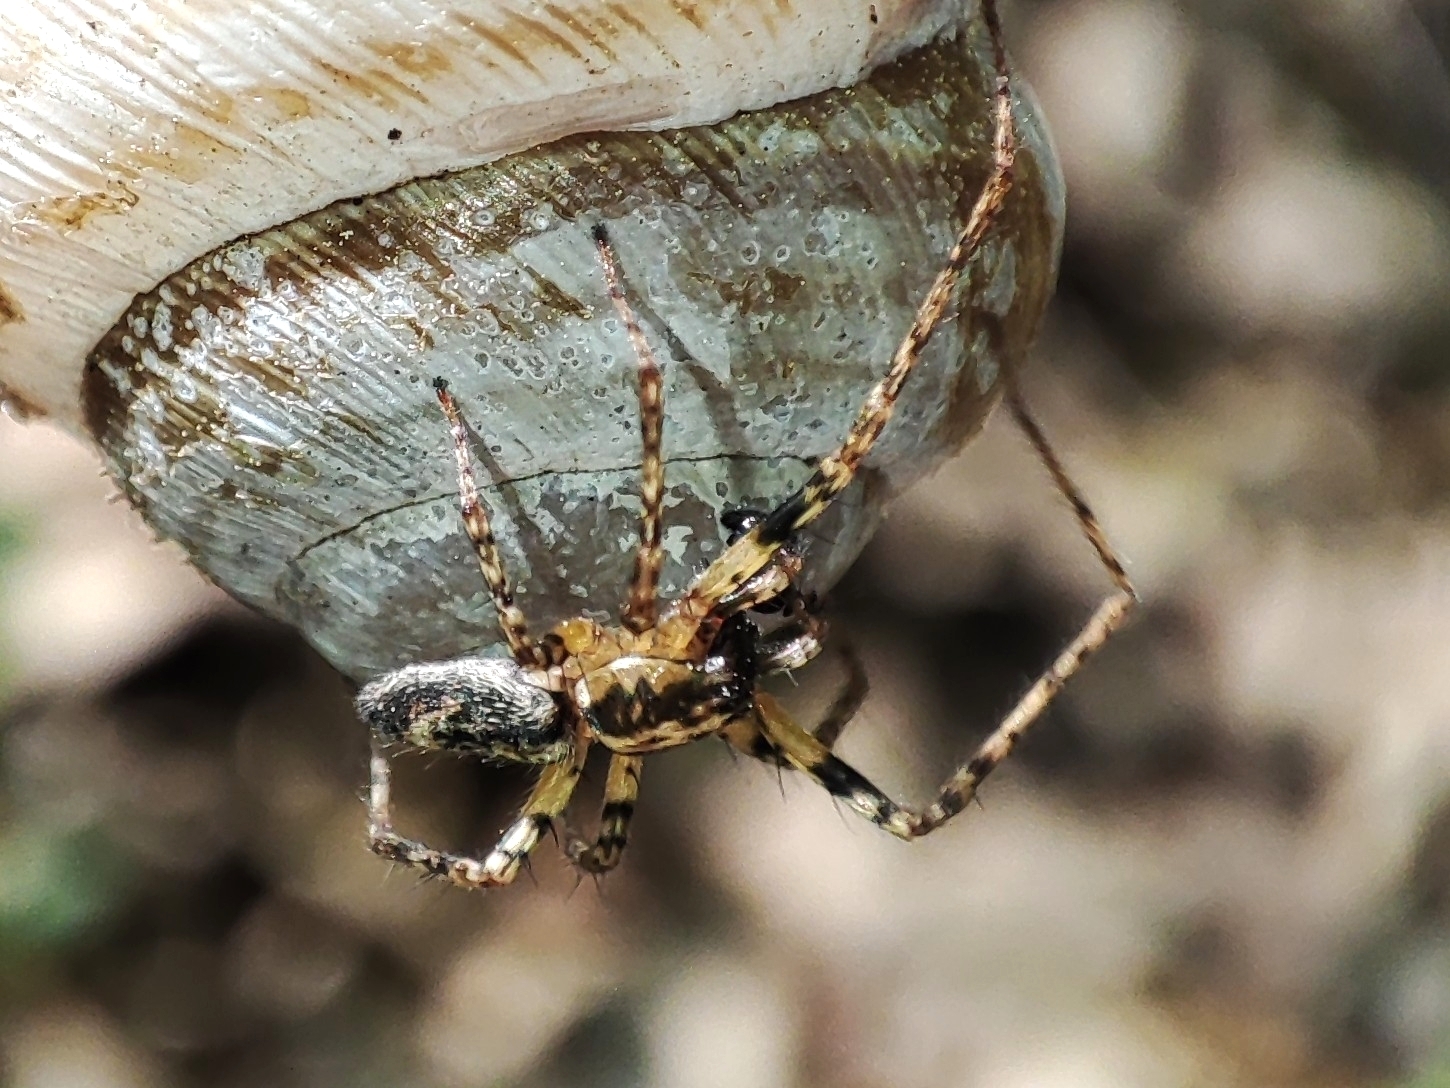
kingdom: Animalia
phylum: Arthropoda
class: Arachnida
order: Araneae
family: Anyphaenidae
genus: Anyphaena
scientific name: Anyphaena accentuata
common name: Buzzing spider
